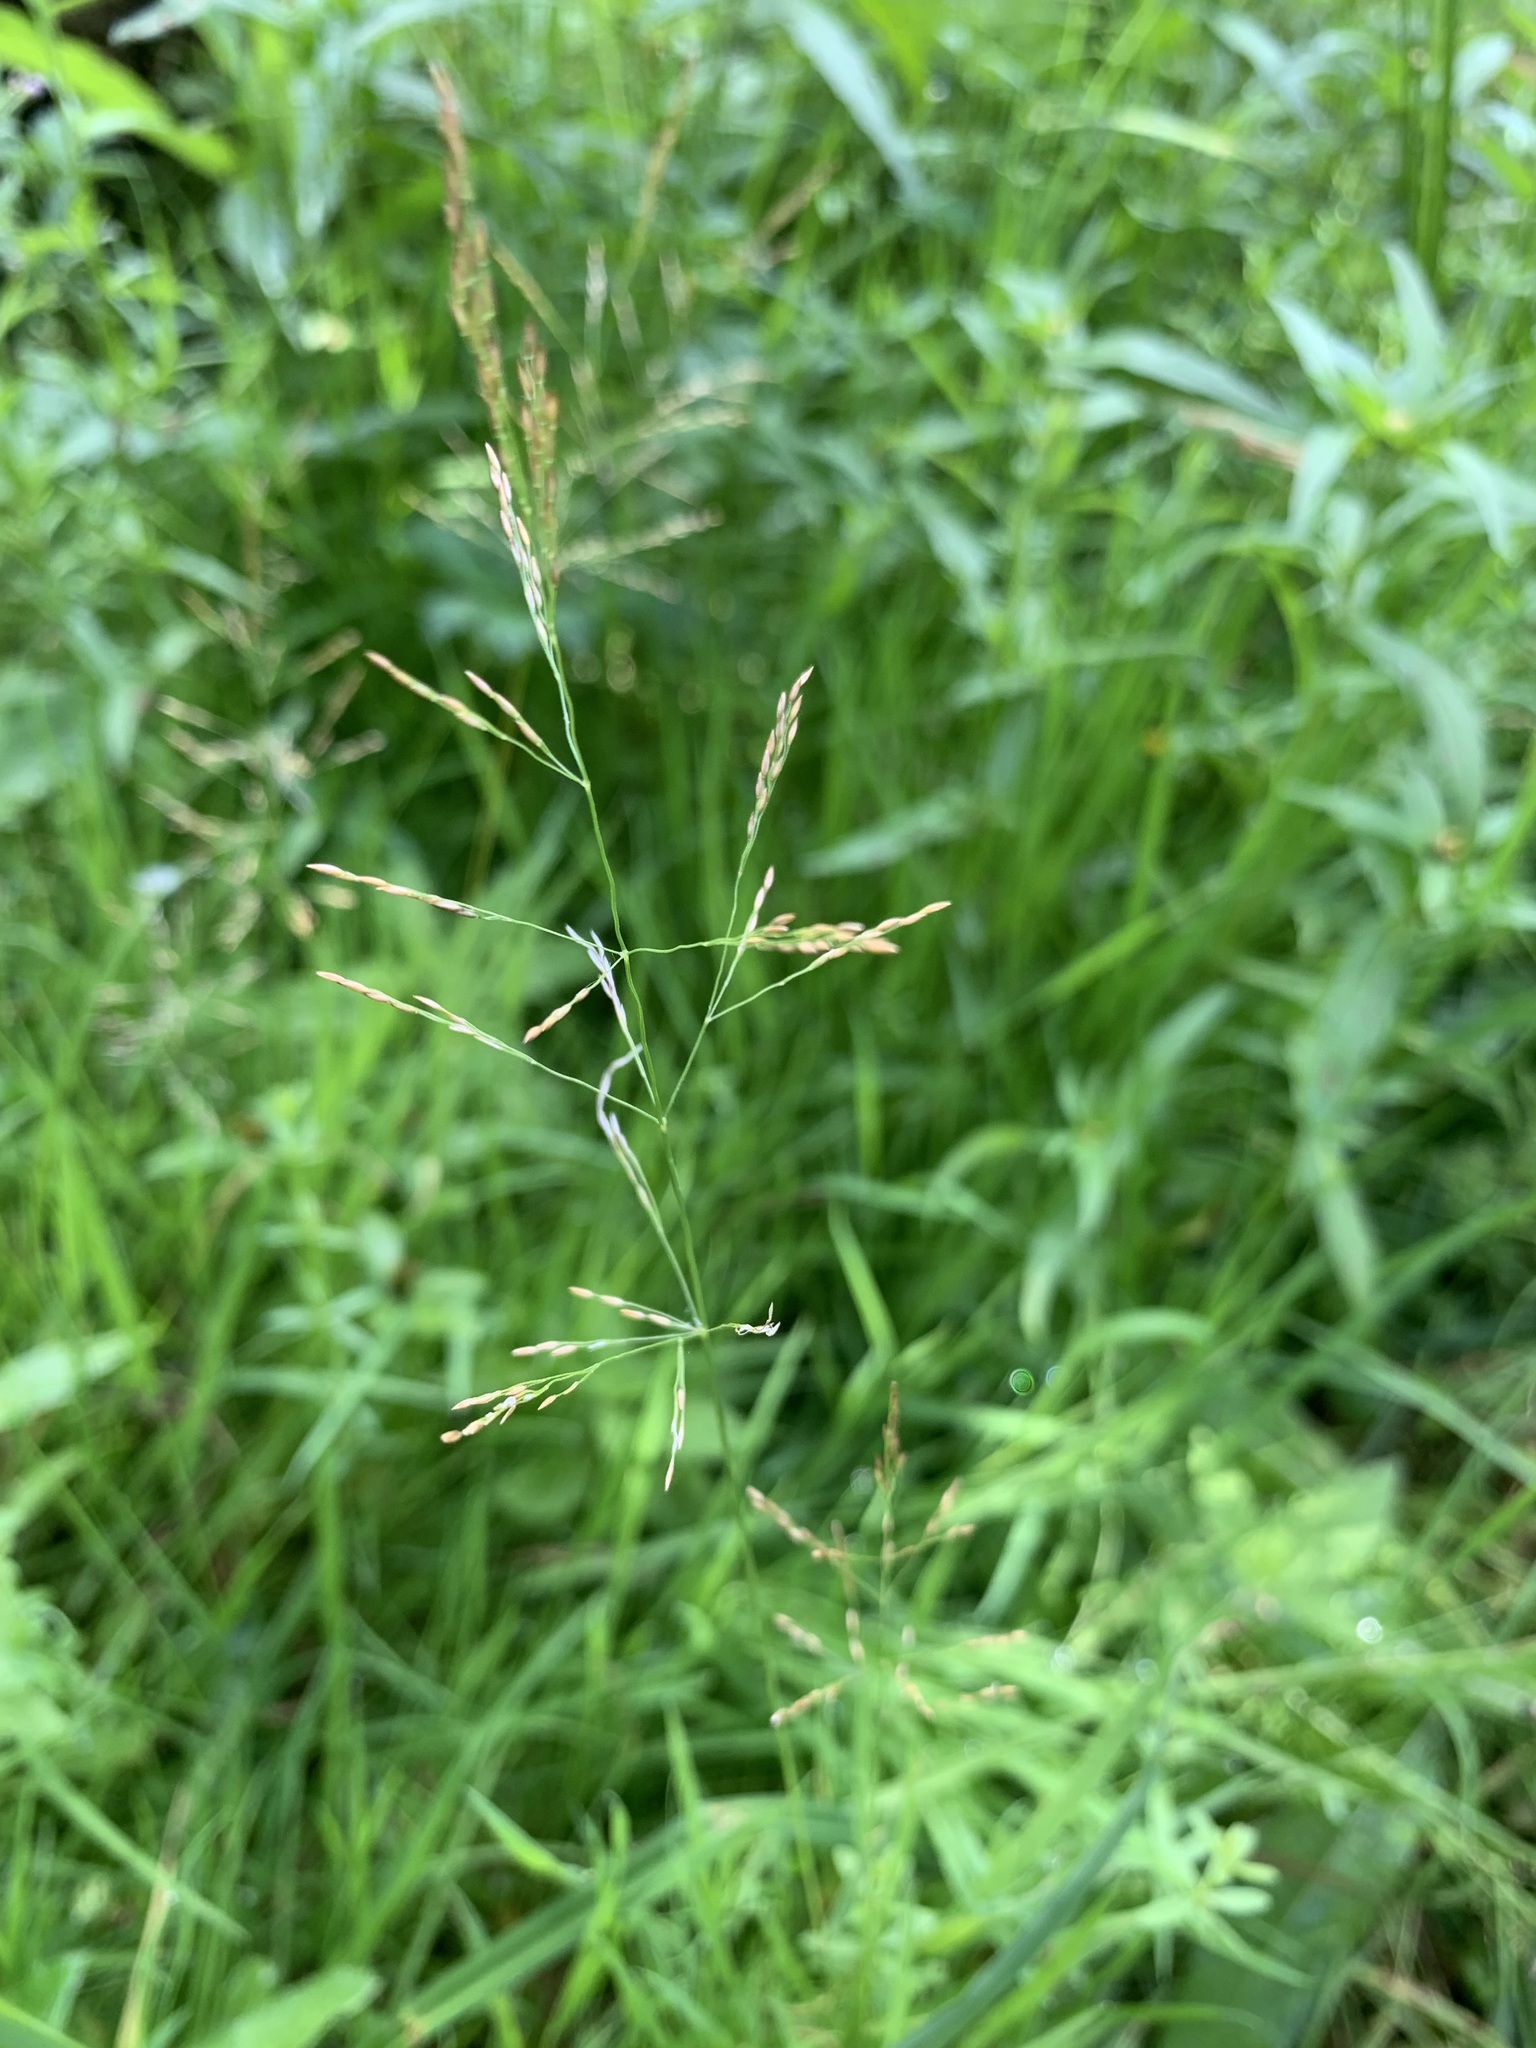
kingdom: Plantae
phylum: Tracheophyta
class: Liliopsida
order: Poales
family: Poaceae
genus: Agrostis
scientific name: Agrostis gigantea
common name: Black bent
